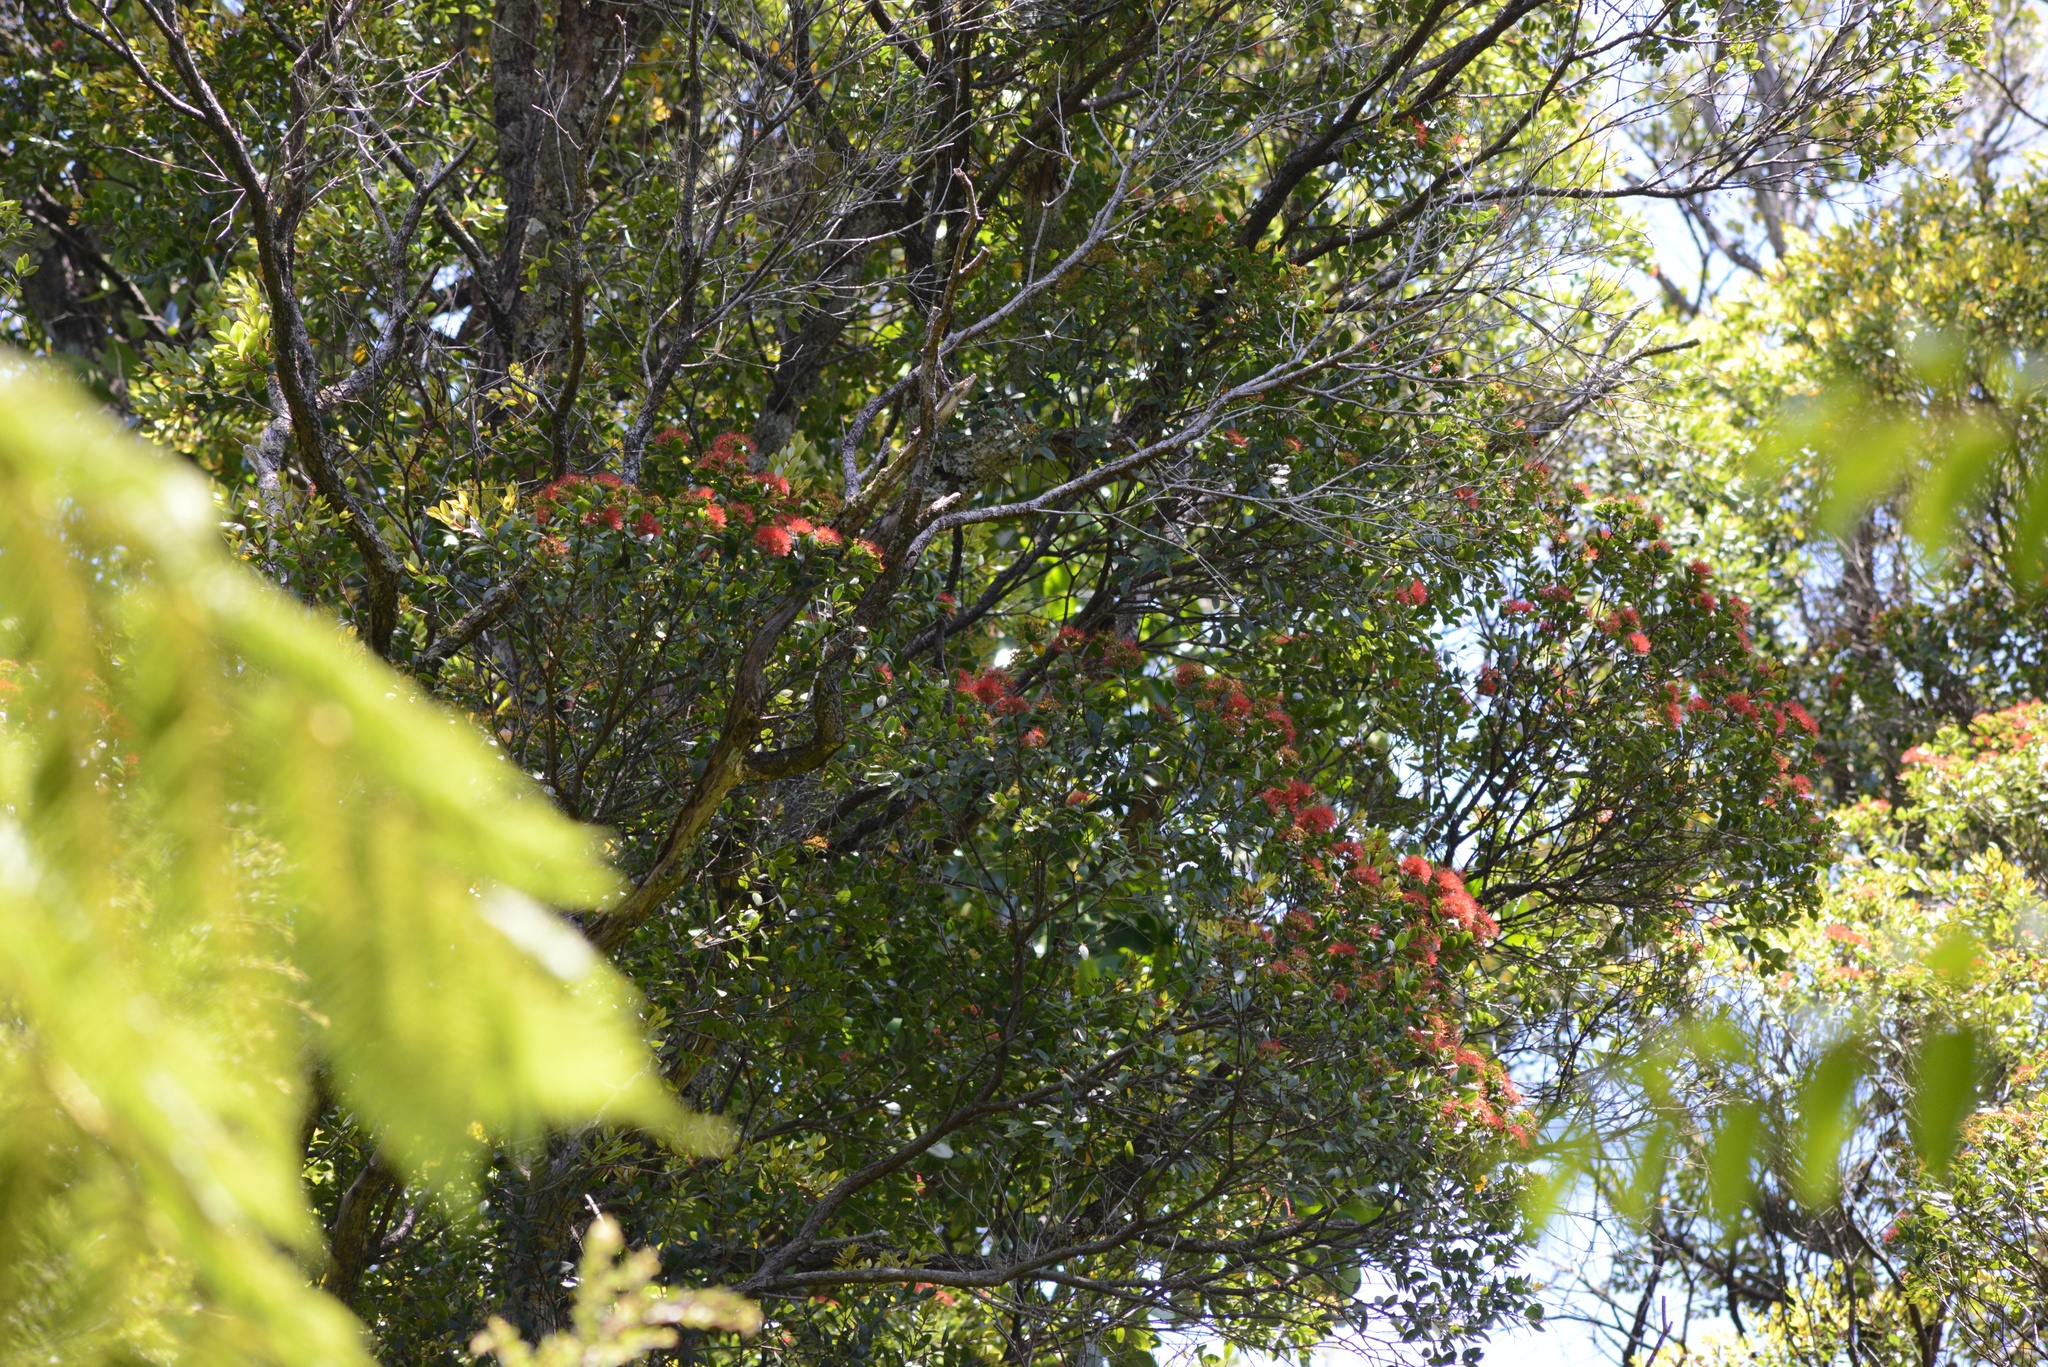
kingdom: Plantae
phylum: Tracheophyta
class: Magnoliopsida
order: Myrtales
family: Myrtaceae
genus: Metrosideros
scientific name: Metrosideros robusta
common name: Northern rata
